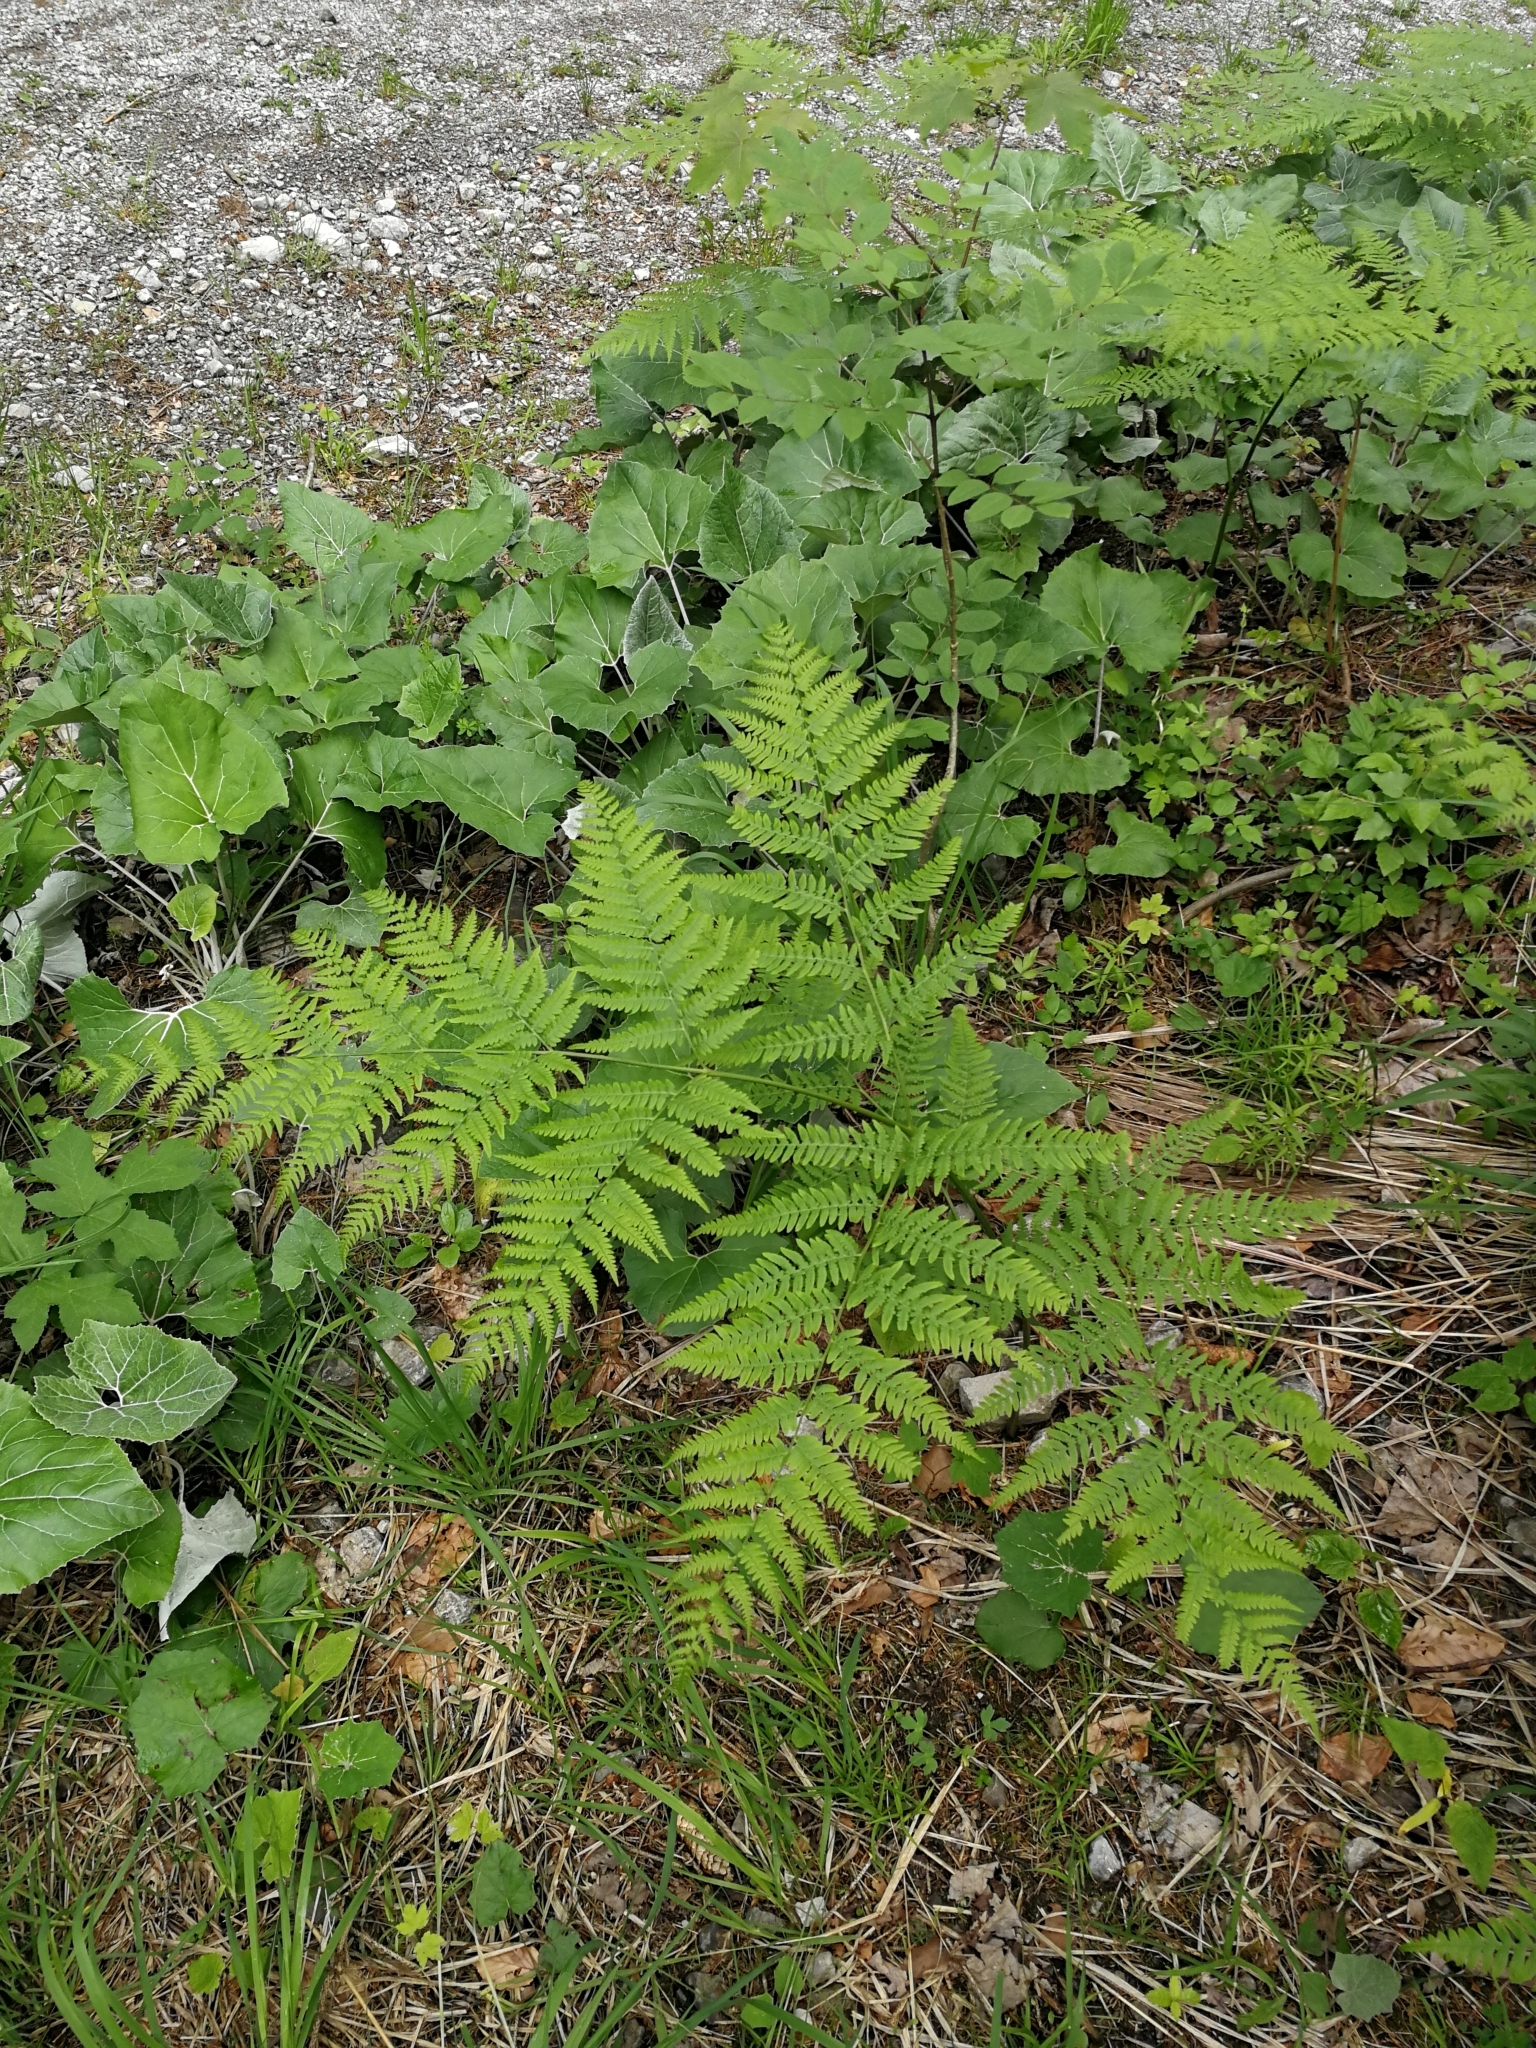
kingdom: Plantae
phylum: Tracheophyta
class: Polypodiopsida
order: Polypodiales
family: Dennstaedtiaceae
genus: Pteridium
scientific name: Pteridium aquilinum
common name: Bracken
